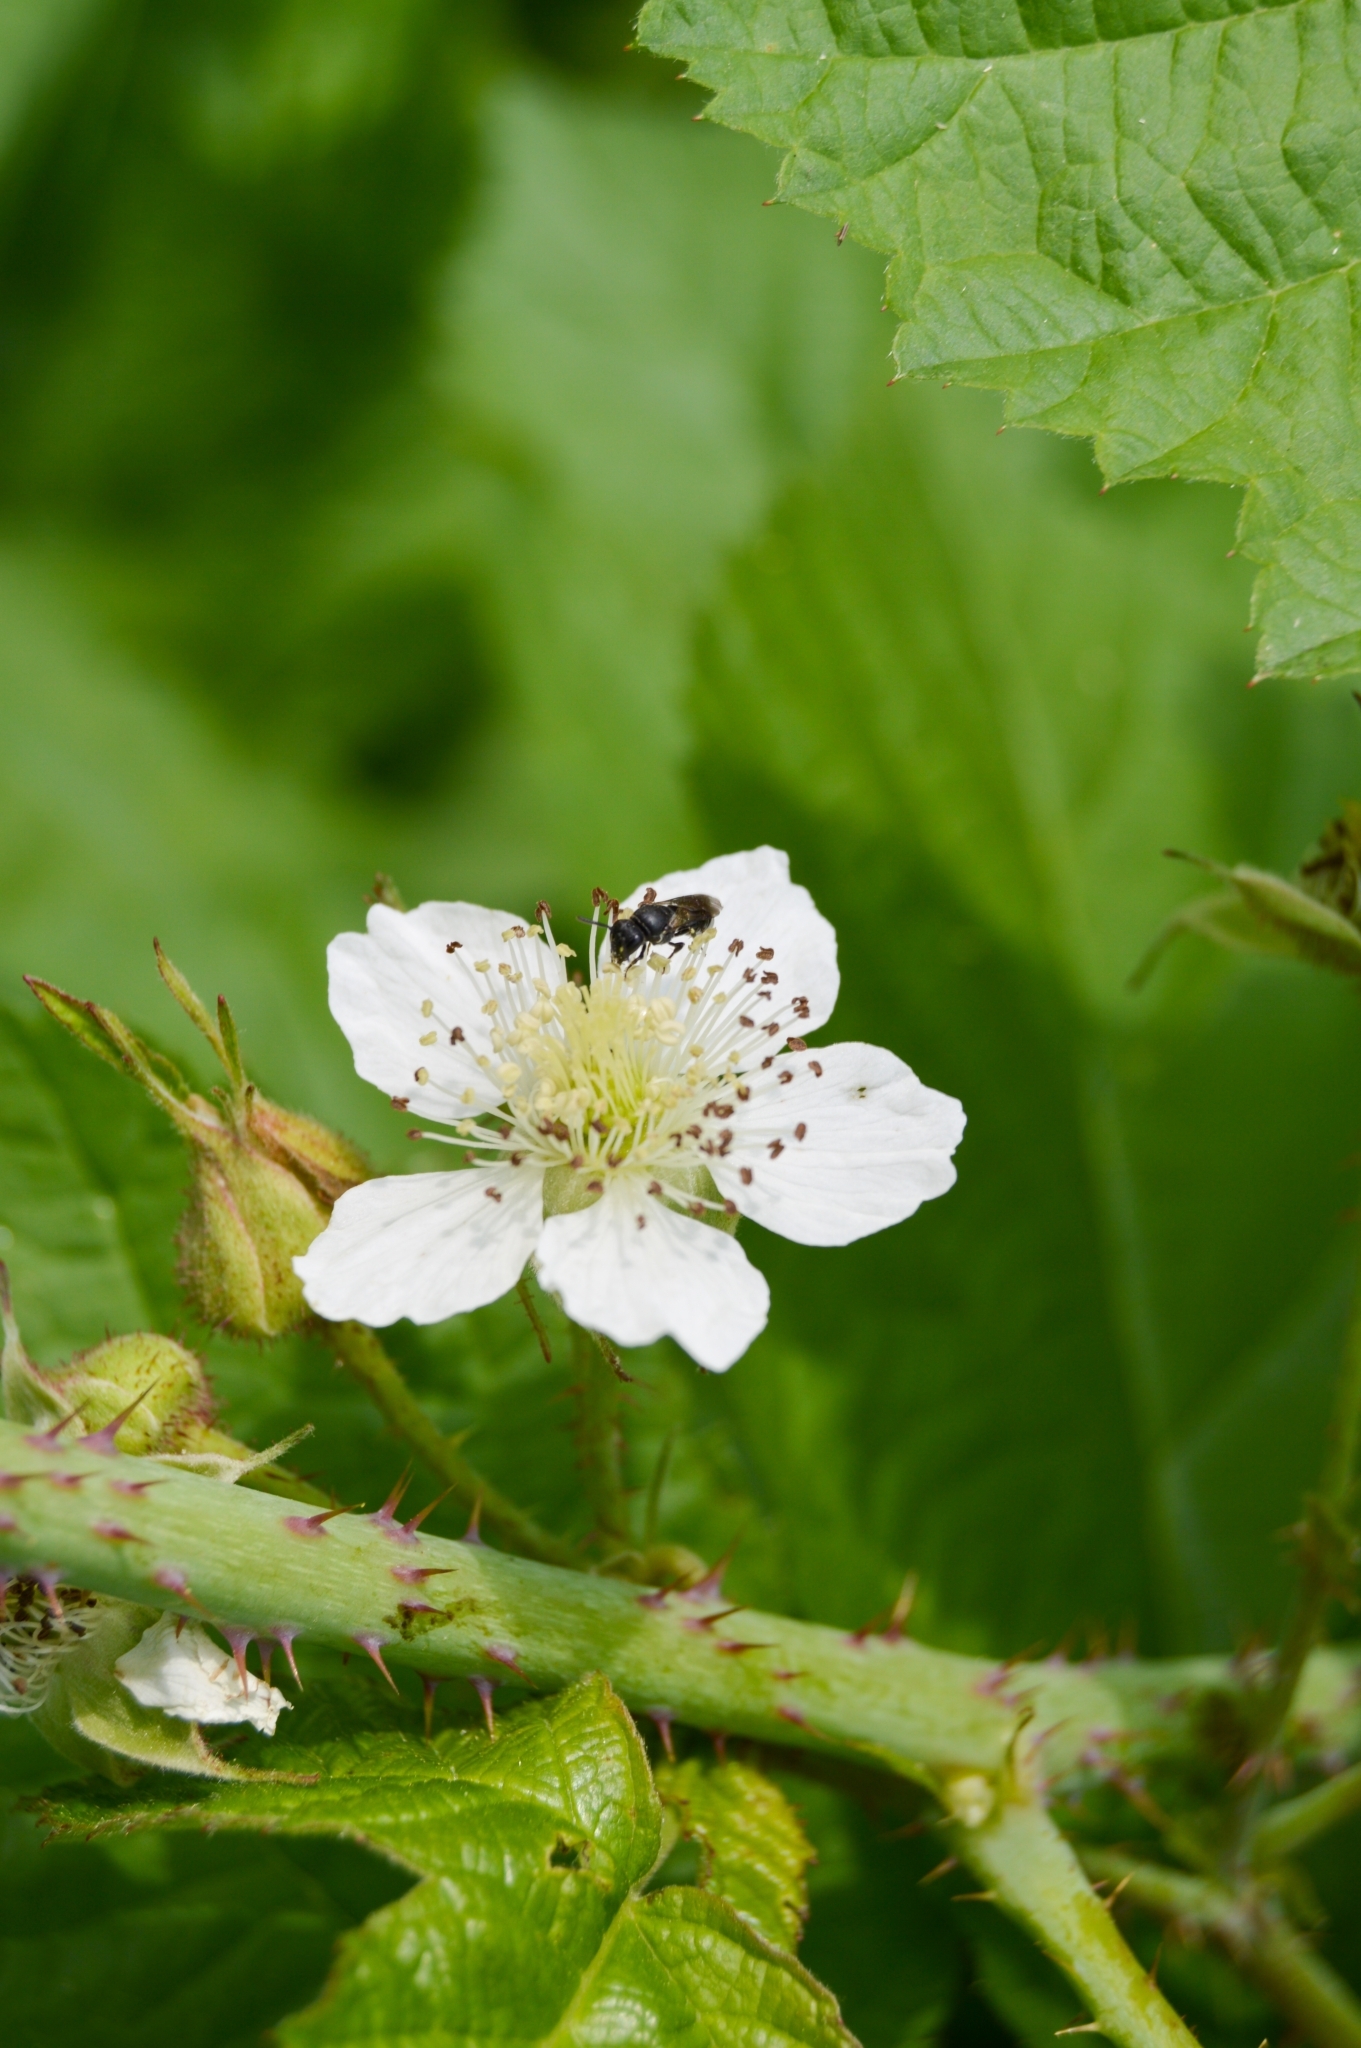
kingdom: Plantae
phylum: Tracheophyta
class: Magnoliopsida
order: Rosales
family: Rosaceae
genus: Rubus
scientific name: Rubus caesius
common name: Dewberry
